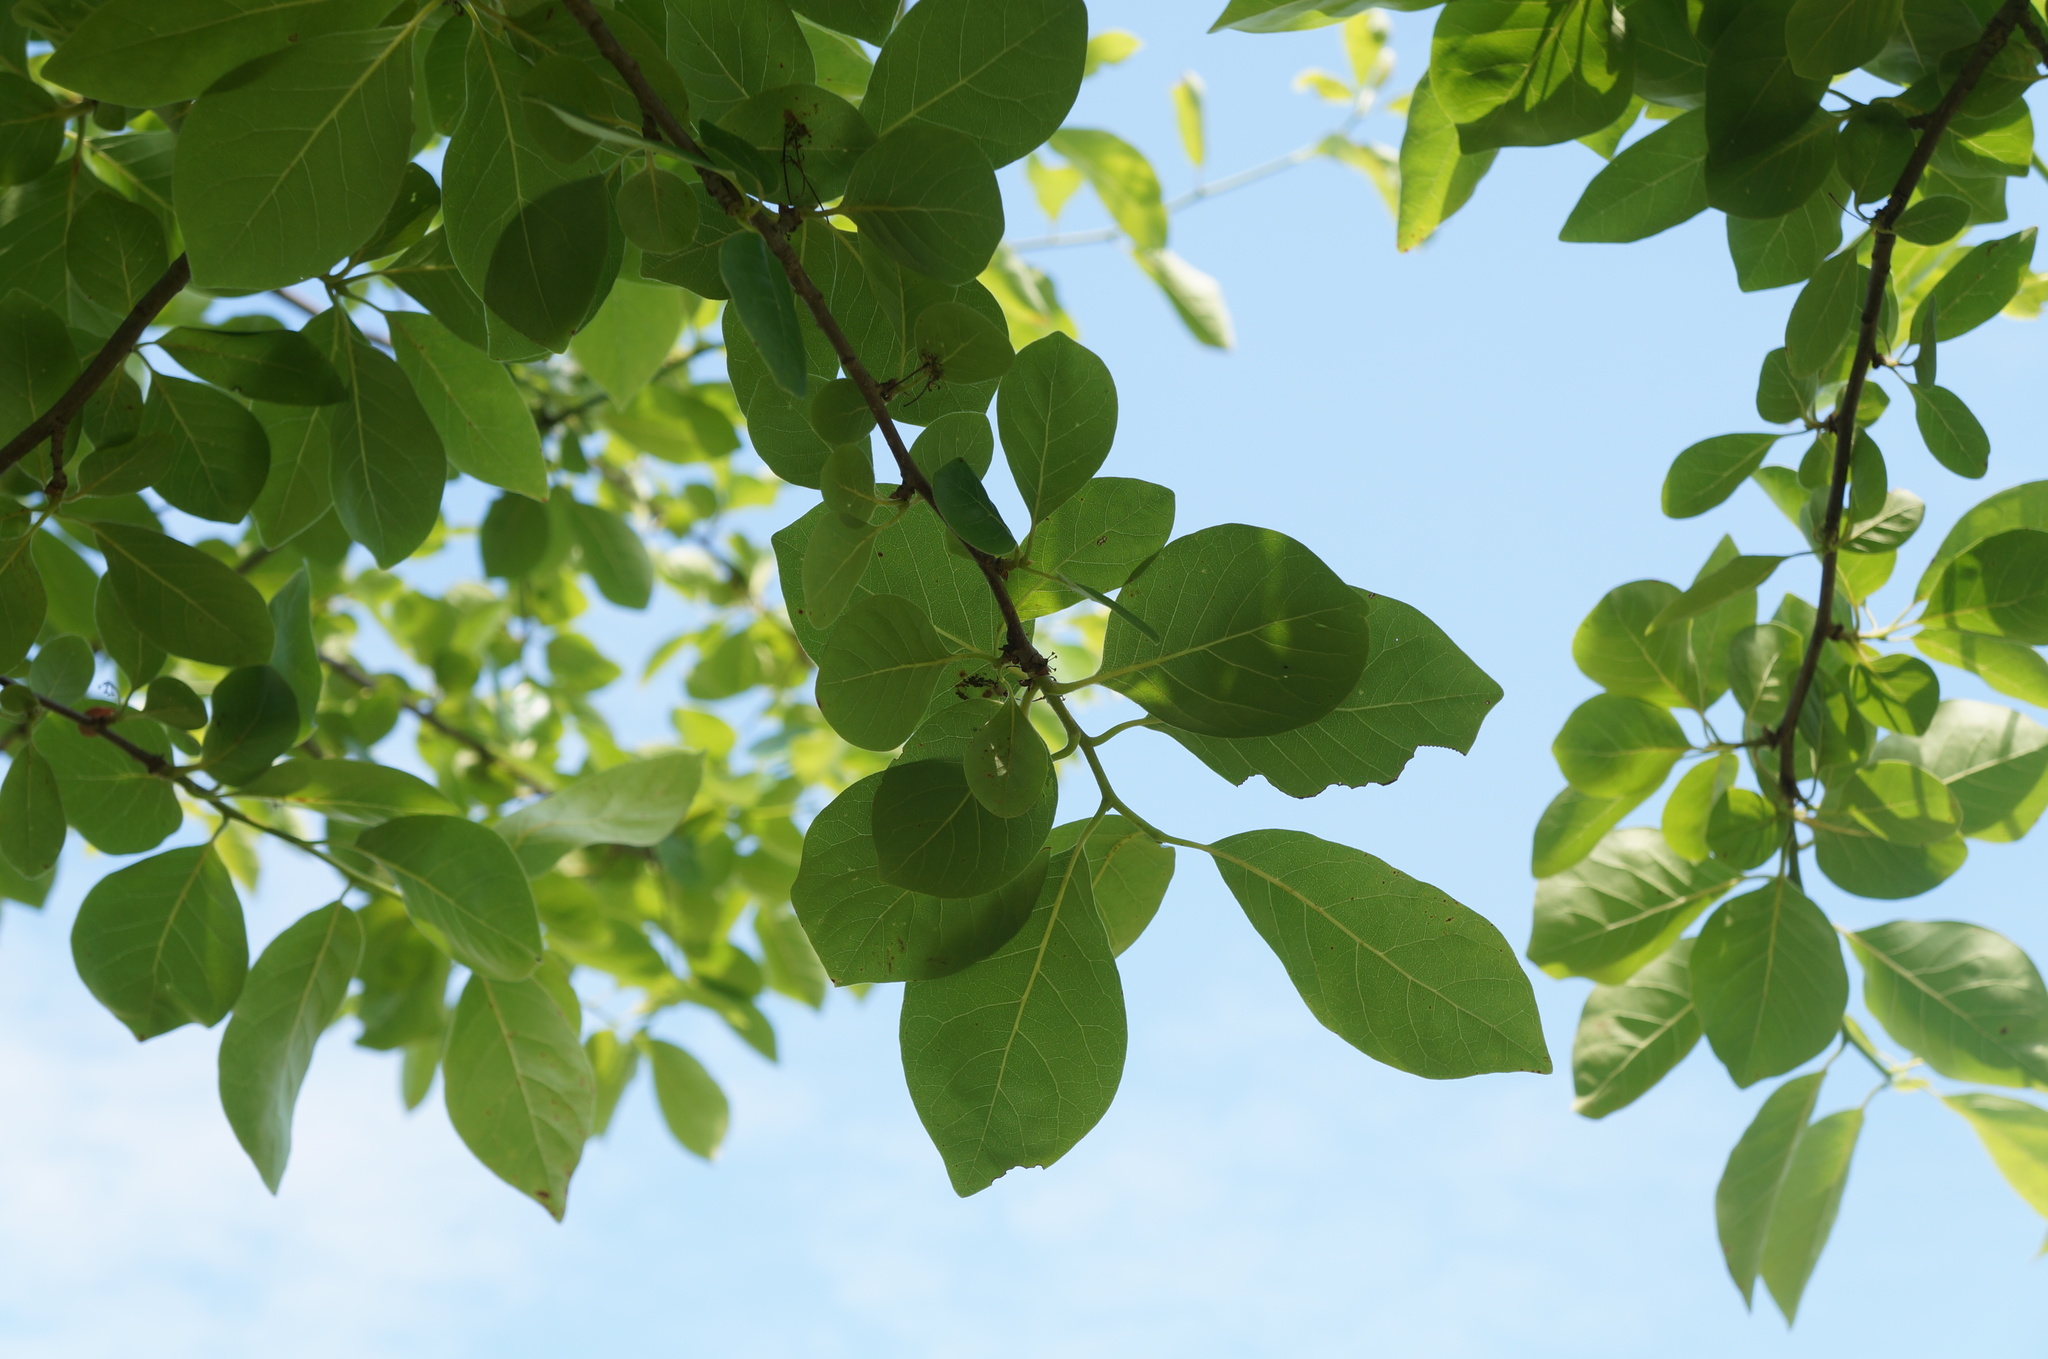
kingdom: Plantae
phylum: Tracheophyta
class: Magnoliopsida
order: Cornales
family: Nyssaceae
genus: Nyssa
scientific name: Nyssa sylvatica
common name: Black tupelo
